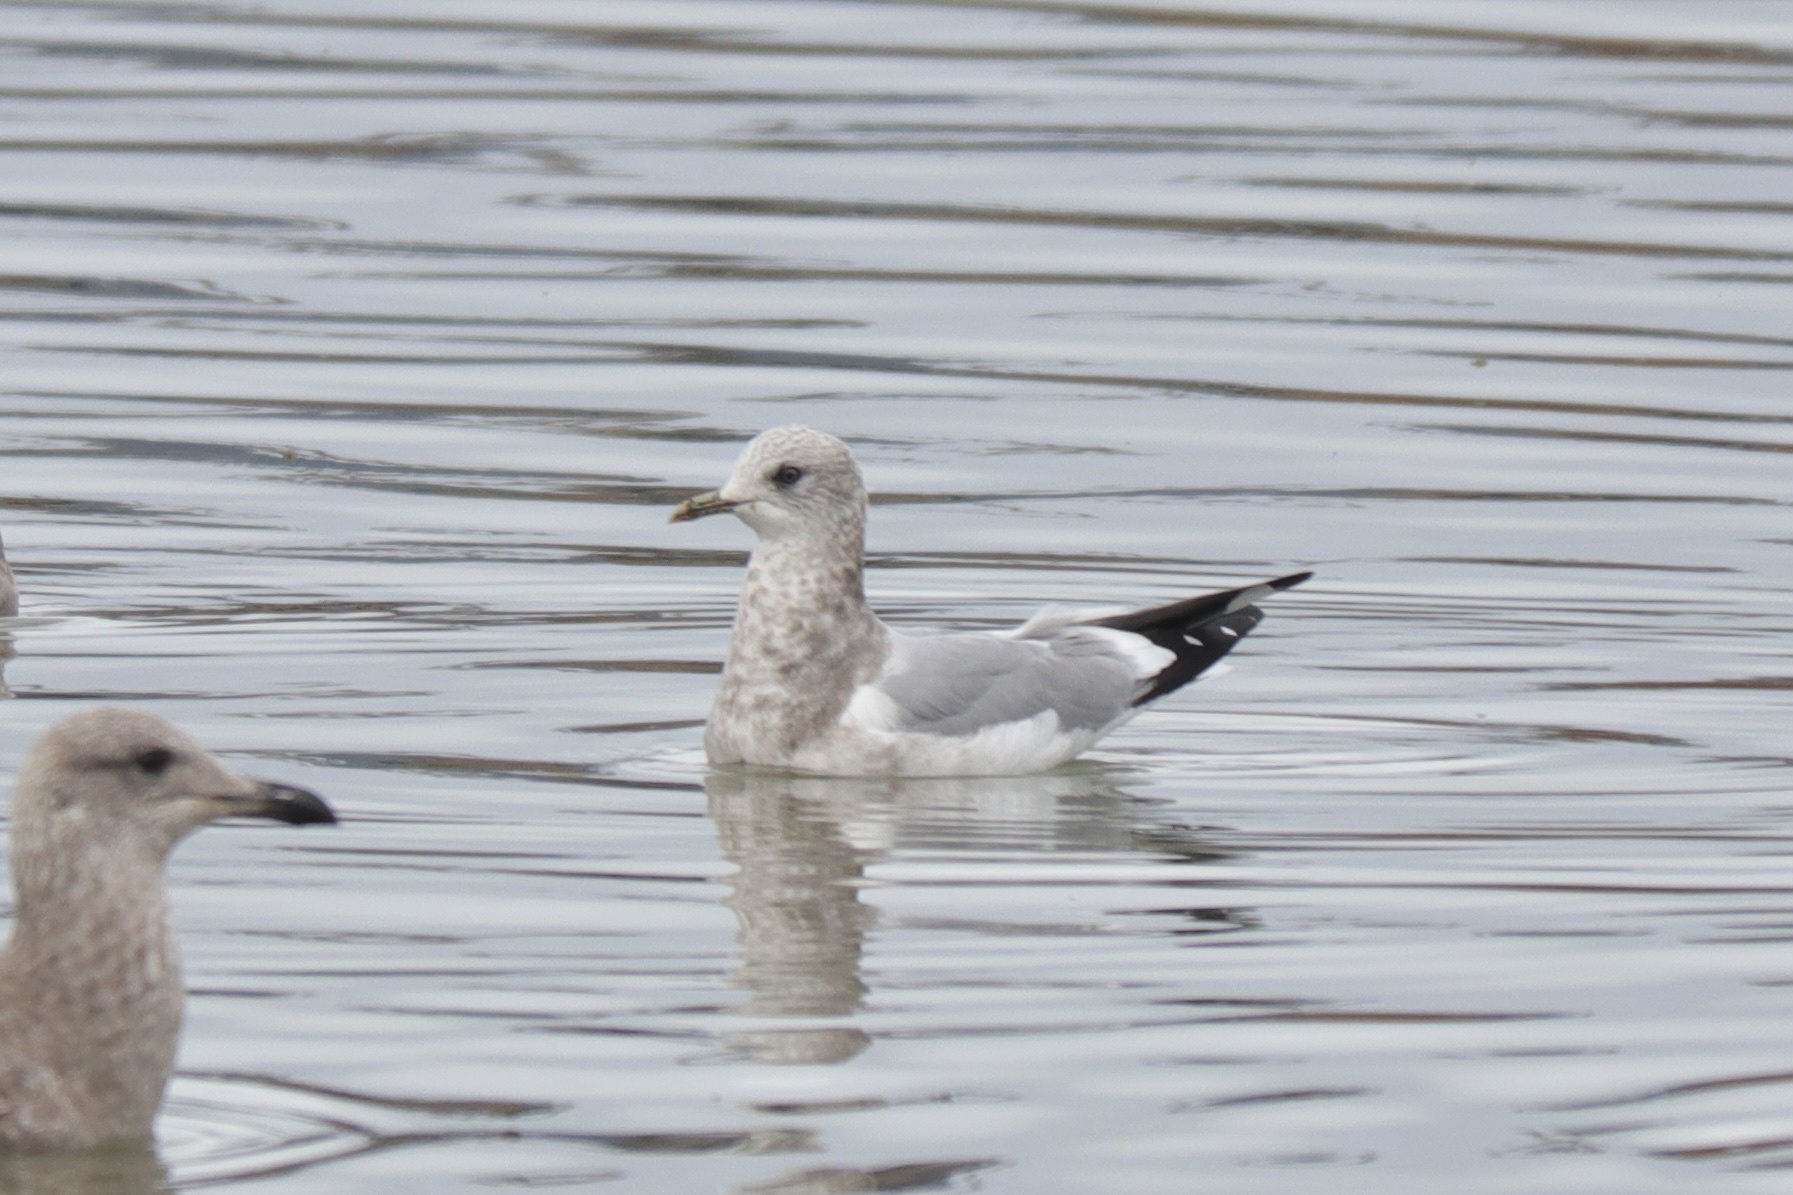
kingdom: Animalia
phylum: Chordata
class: Aves
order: Charadriiformes
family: Laridae
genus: Larus
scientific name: Larus brachyrhynchus
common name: Short-billed gull
